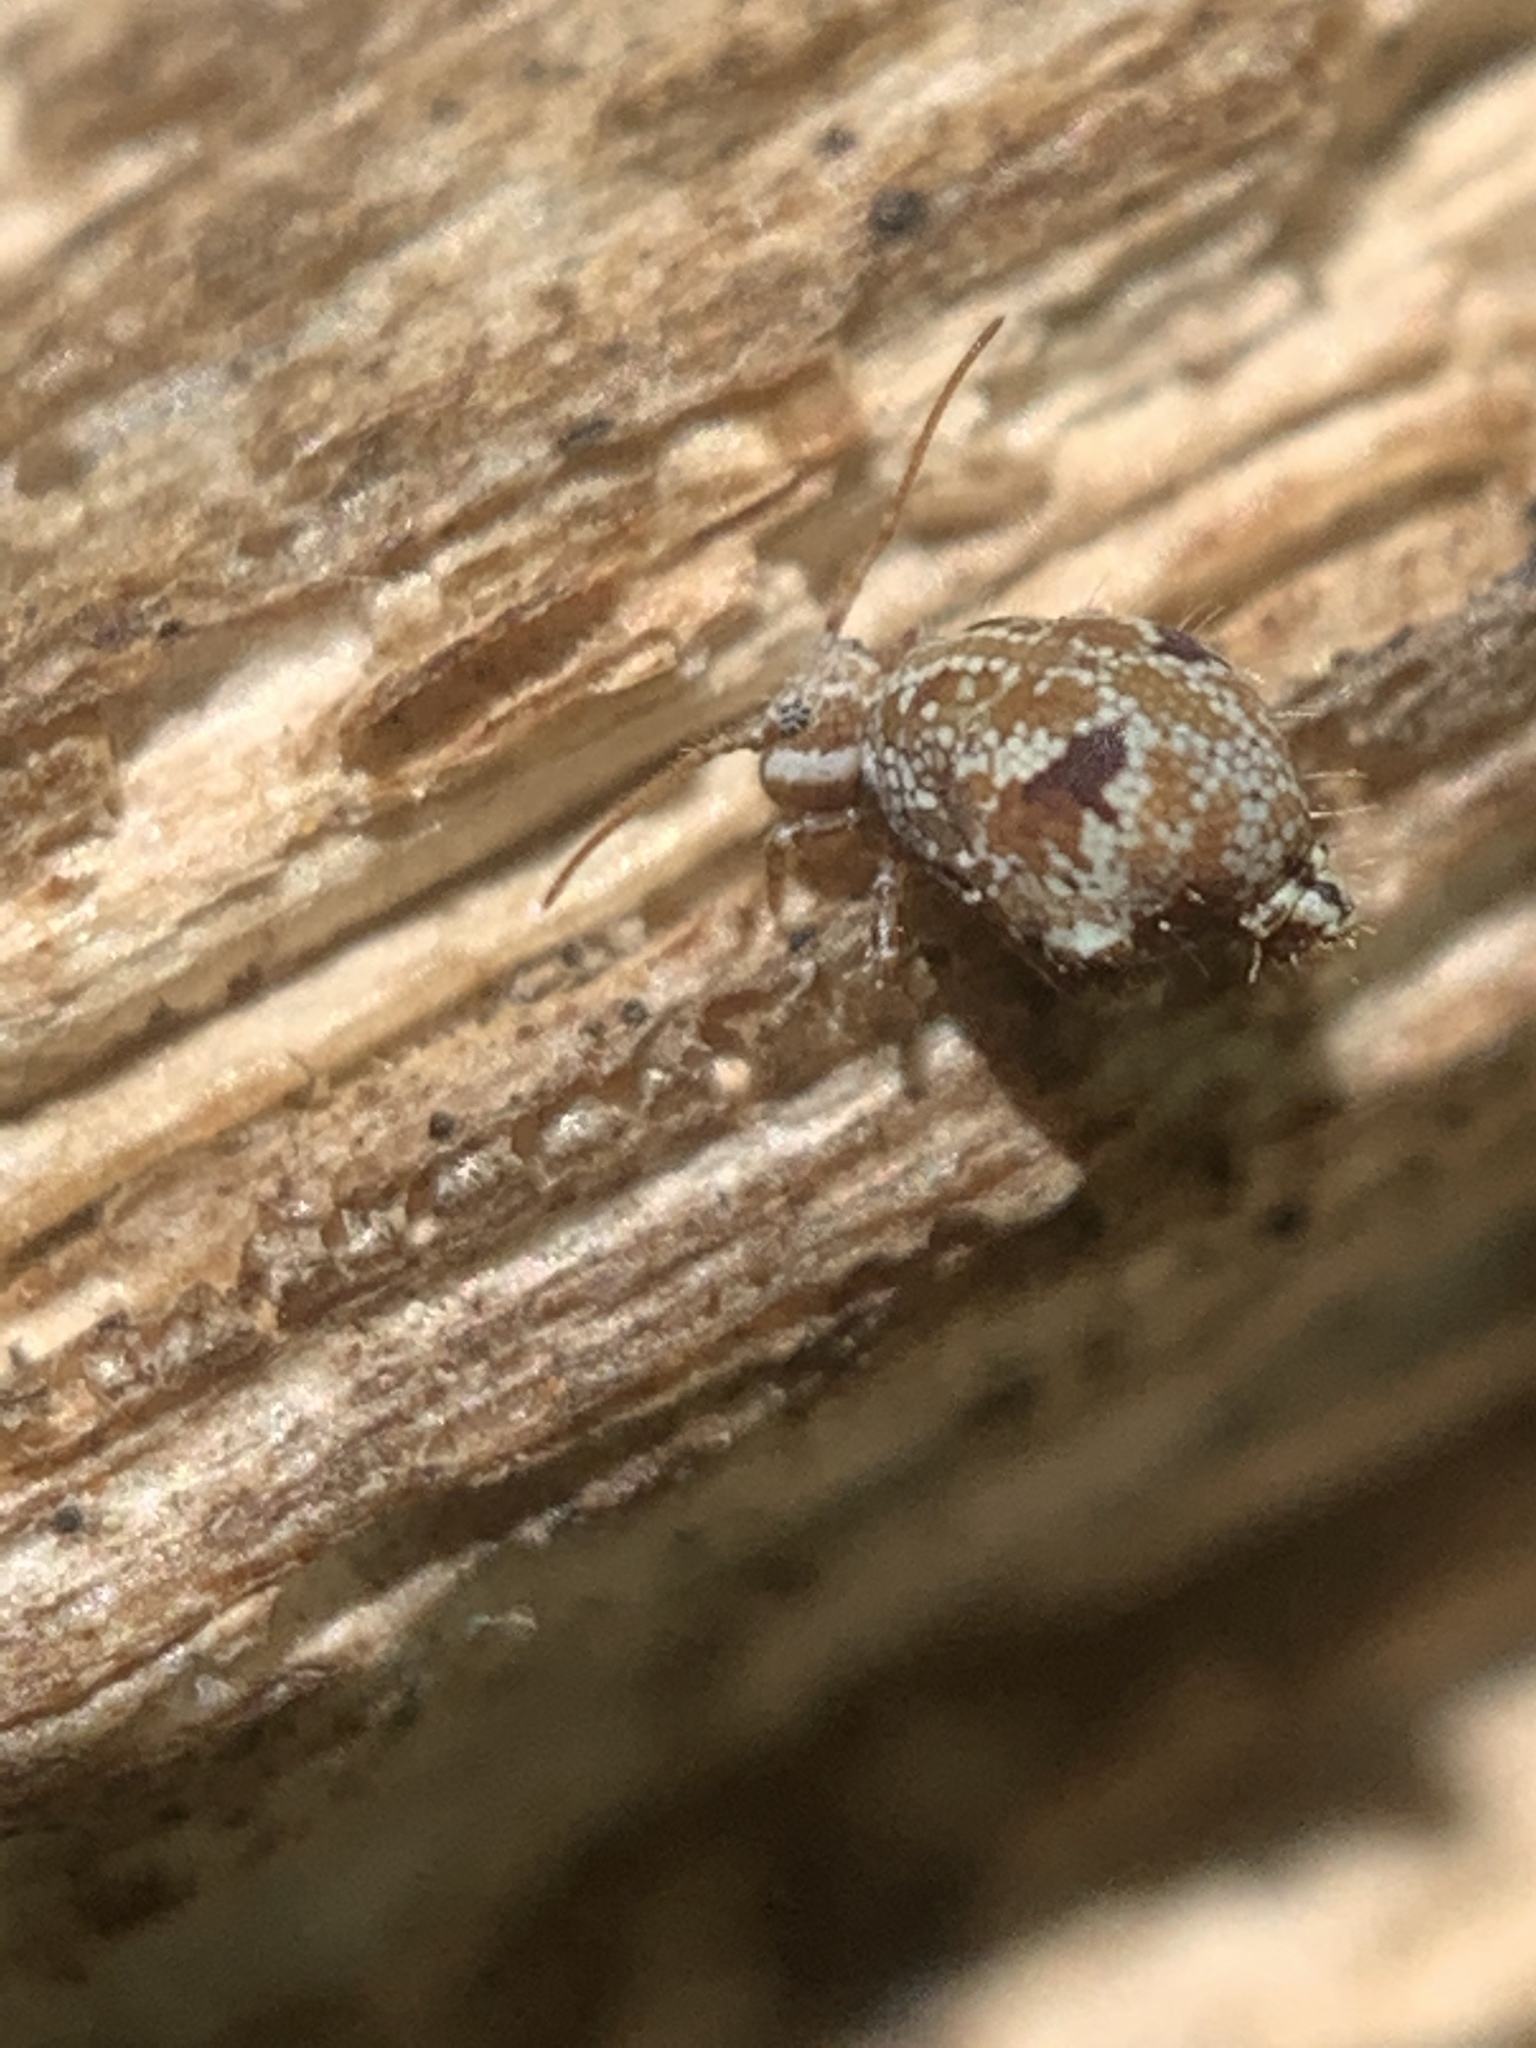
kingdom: Animalia
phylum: Arthropoda
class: Collembola
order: Symphypleona
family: Sminthuridae
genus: Janusius
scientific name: Janusius sylvestris
